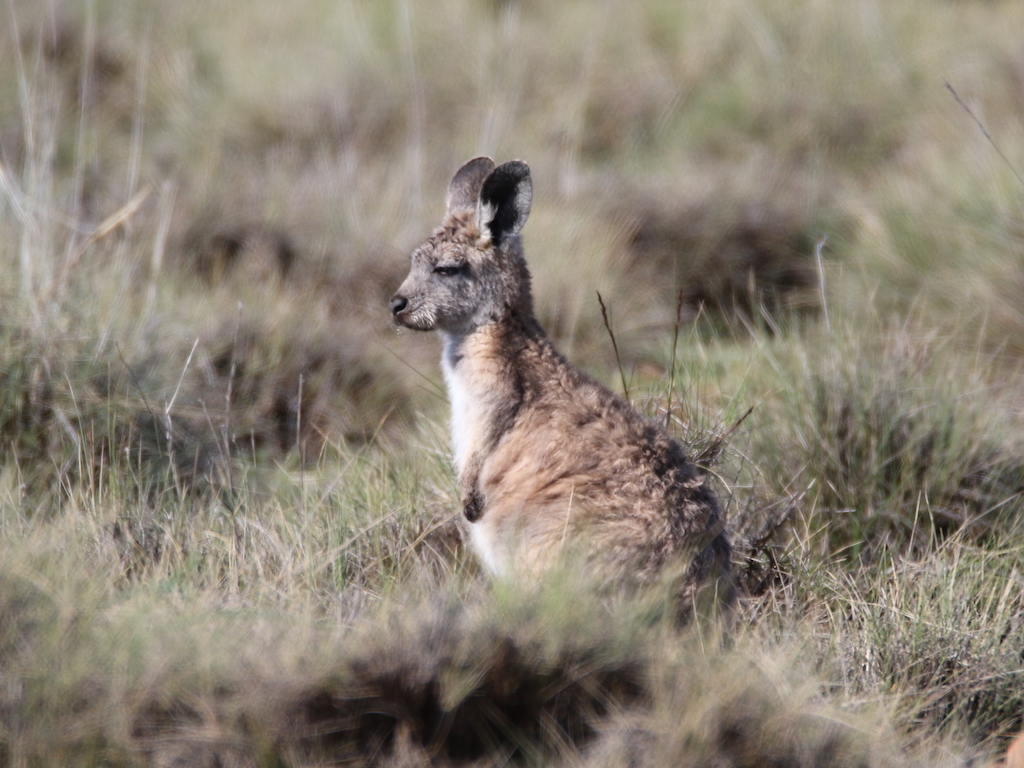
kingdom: Animalia
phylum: Chordata
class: Mammalia
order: Diprotodontia
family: Macropodidae
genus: Macropus
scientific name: Macropus robustus
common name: Eastern wallaroo
